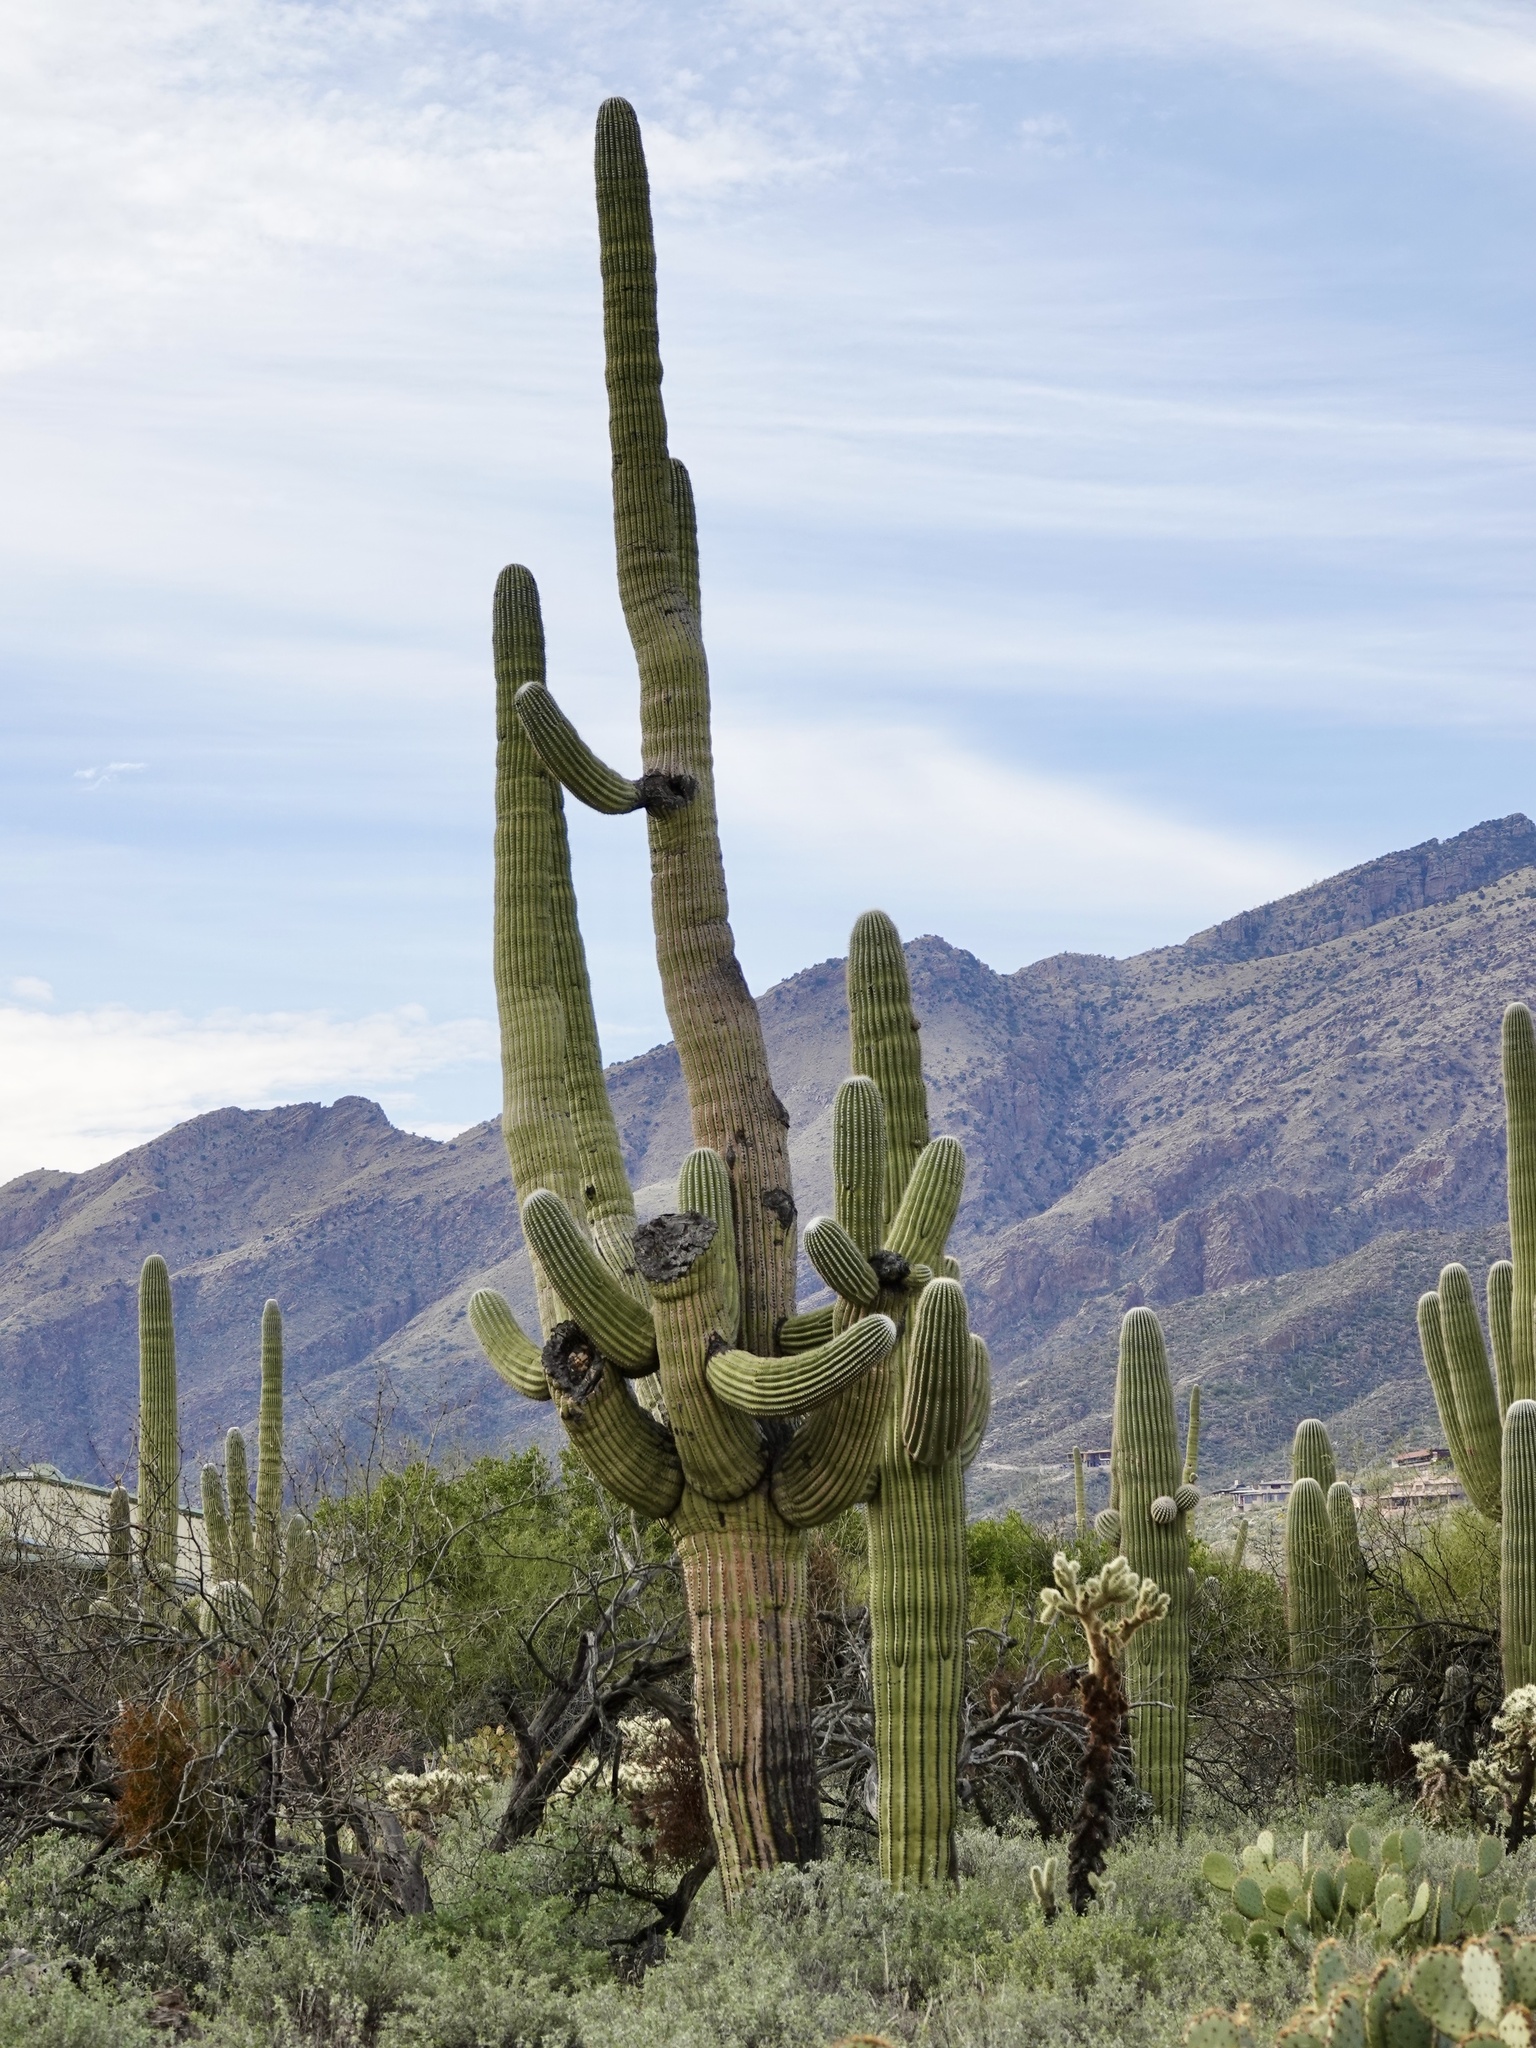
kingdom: Plantae
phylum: Tracheophyta
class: Magnoliopsida
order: Caryophyllales
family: Cactaceae
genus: Carnegiea
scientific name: Carnegiea gigantea
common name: Saguaro
